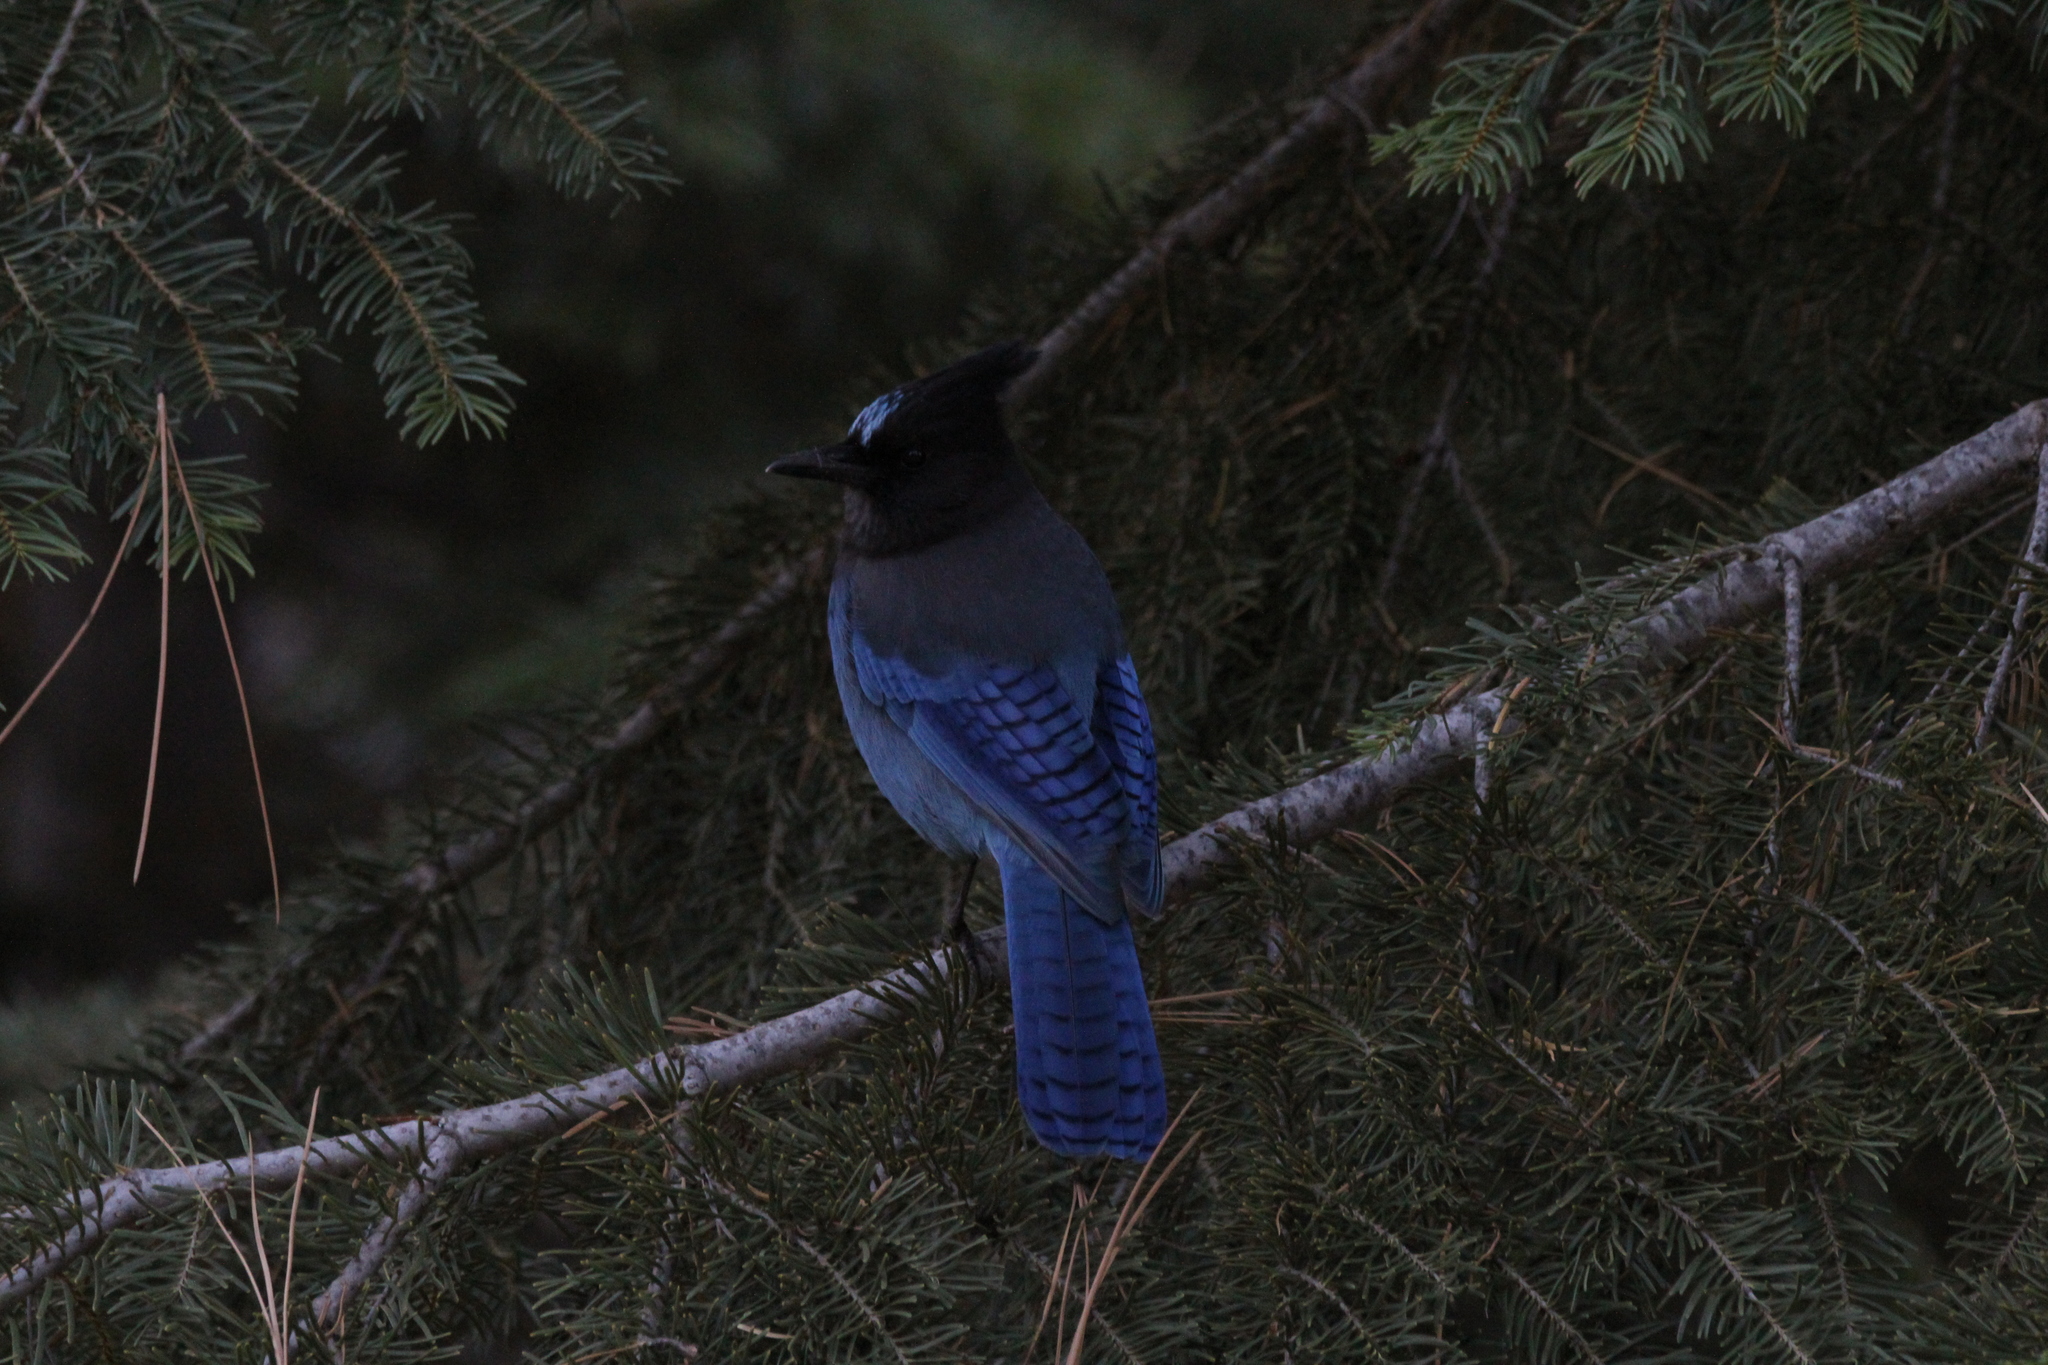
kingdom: Animalia
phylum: Chordata
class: Aves
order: Passeriformes
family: Corvidae
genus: Cyanocitta
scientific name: Cyanocitta stelleri
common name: Steller's jay
